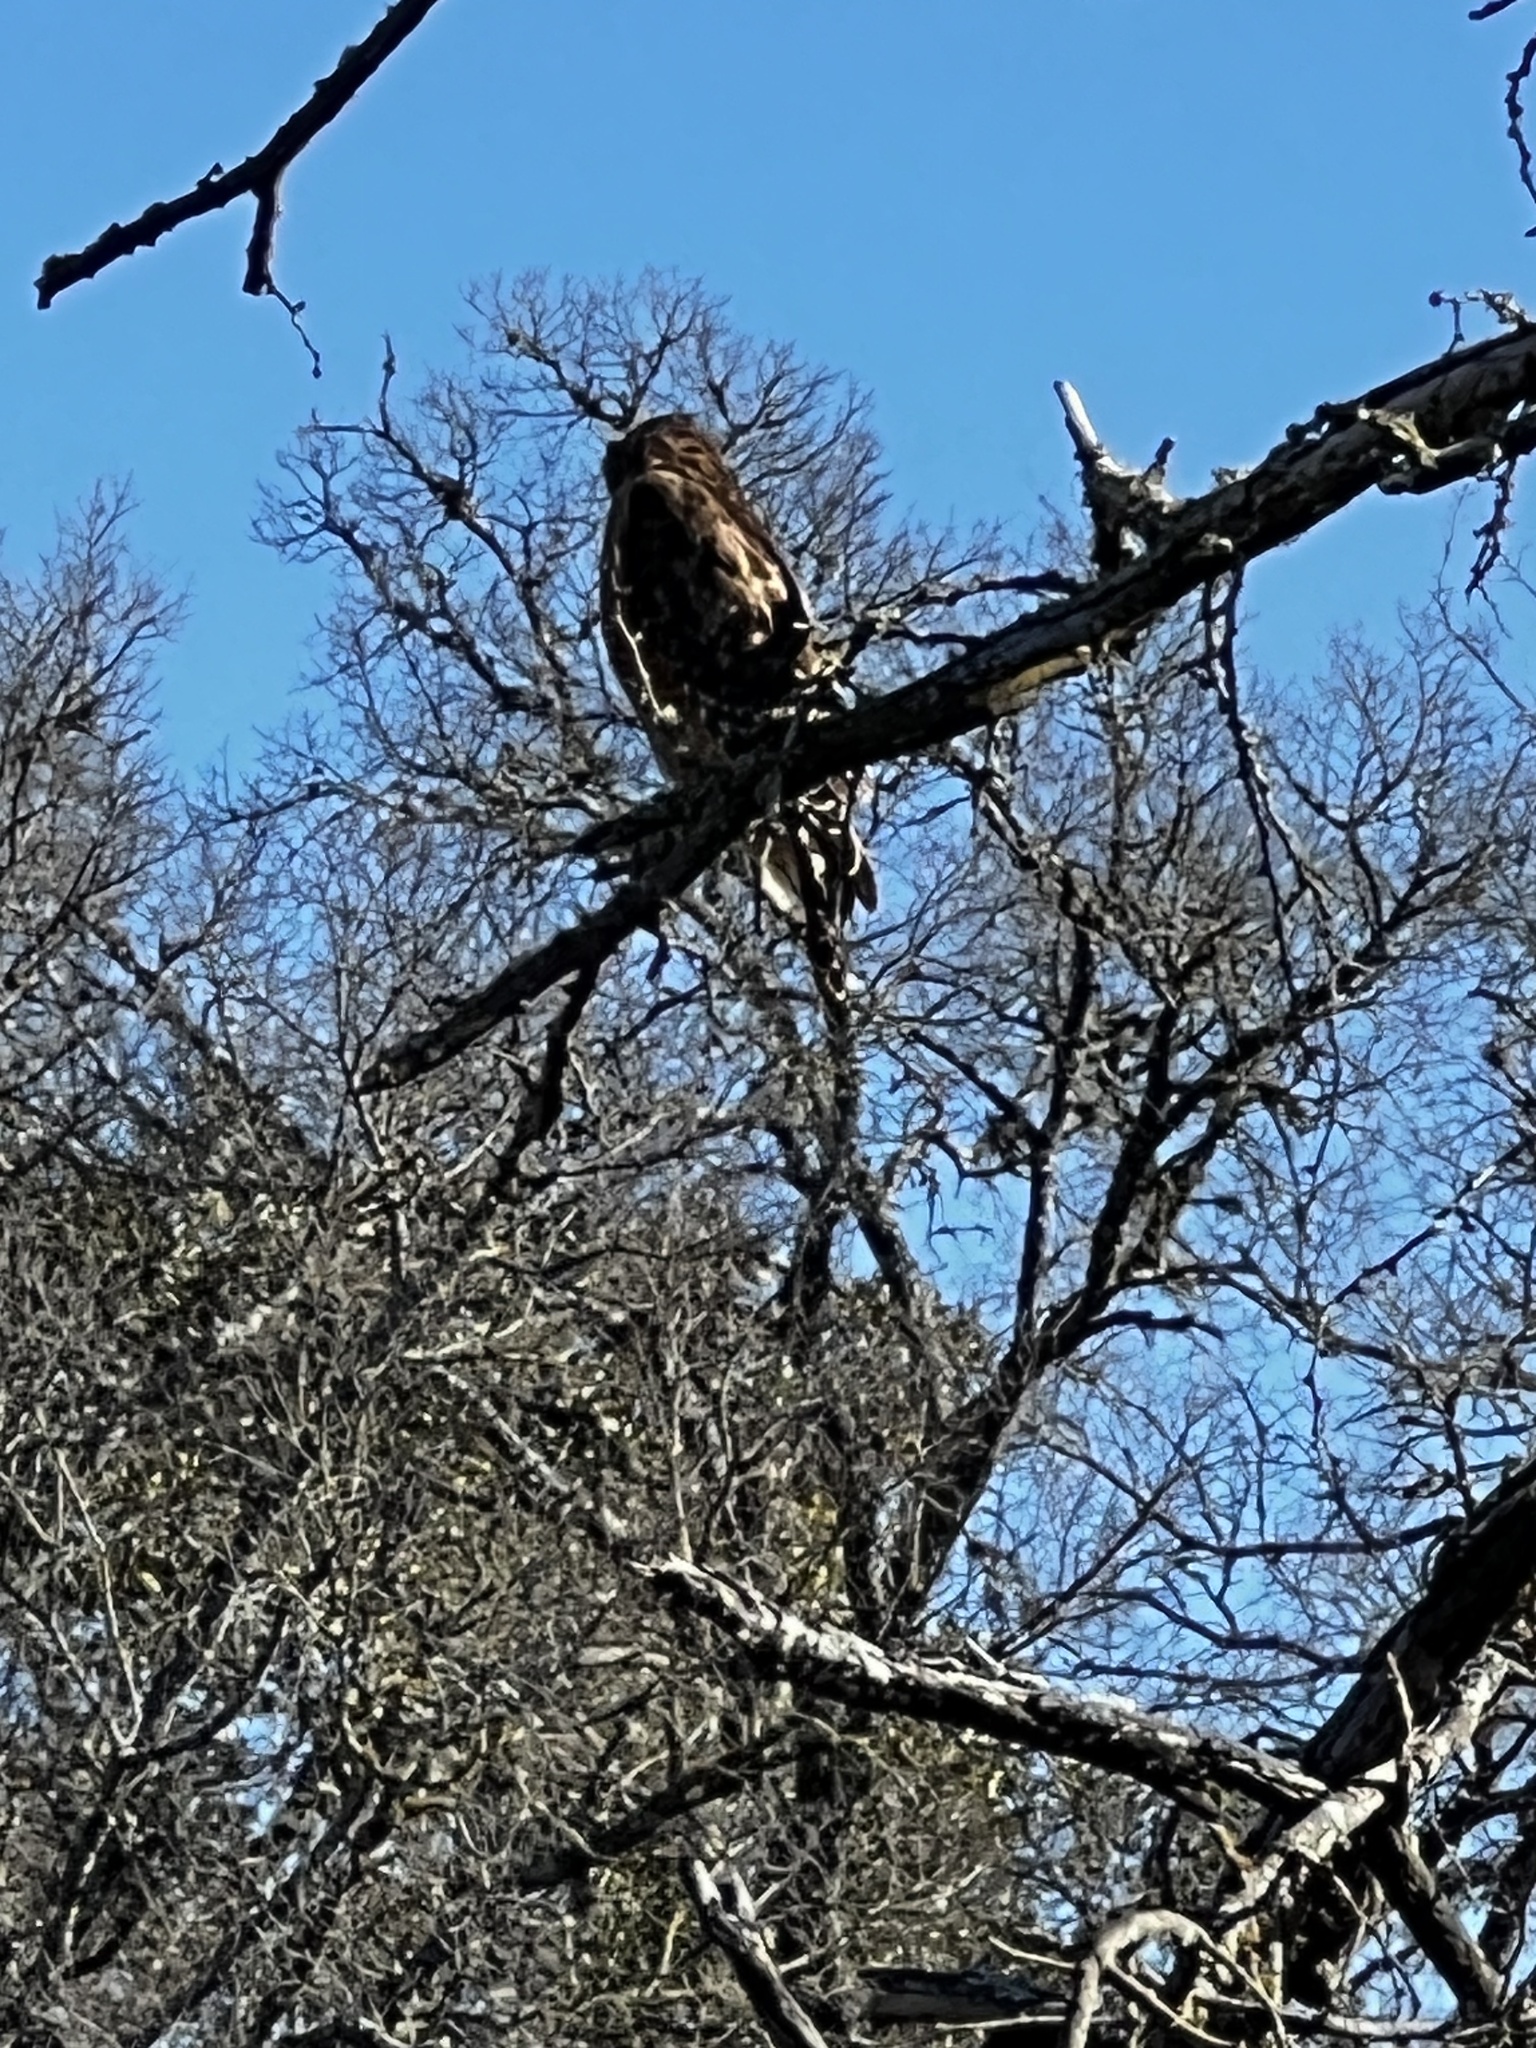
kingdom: Animalia
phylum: Chordata
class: Aves
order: Accipitriformes
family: Accipitridae
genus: Buteo
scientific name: Buteo lineatus
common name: Red-shouldered hawk
